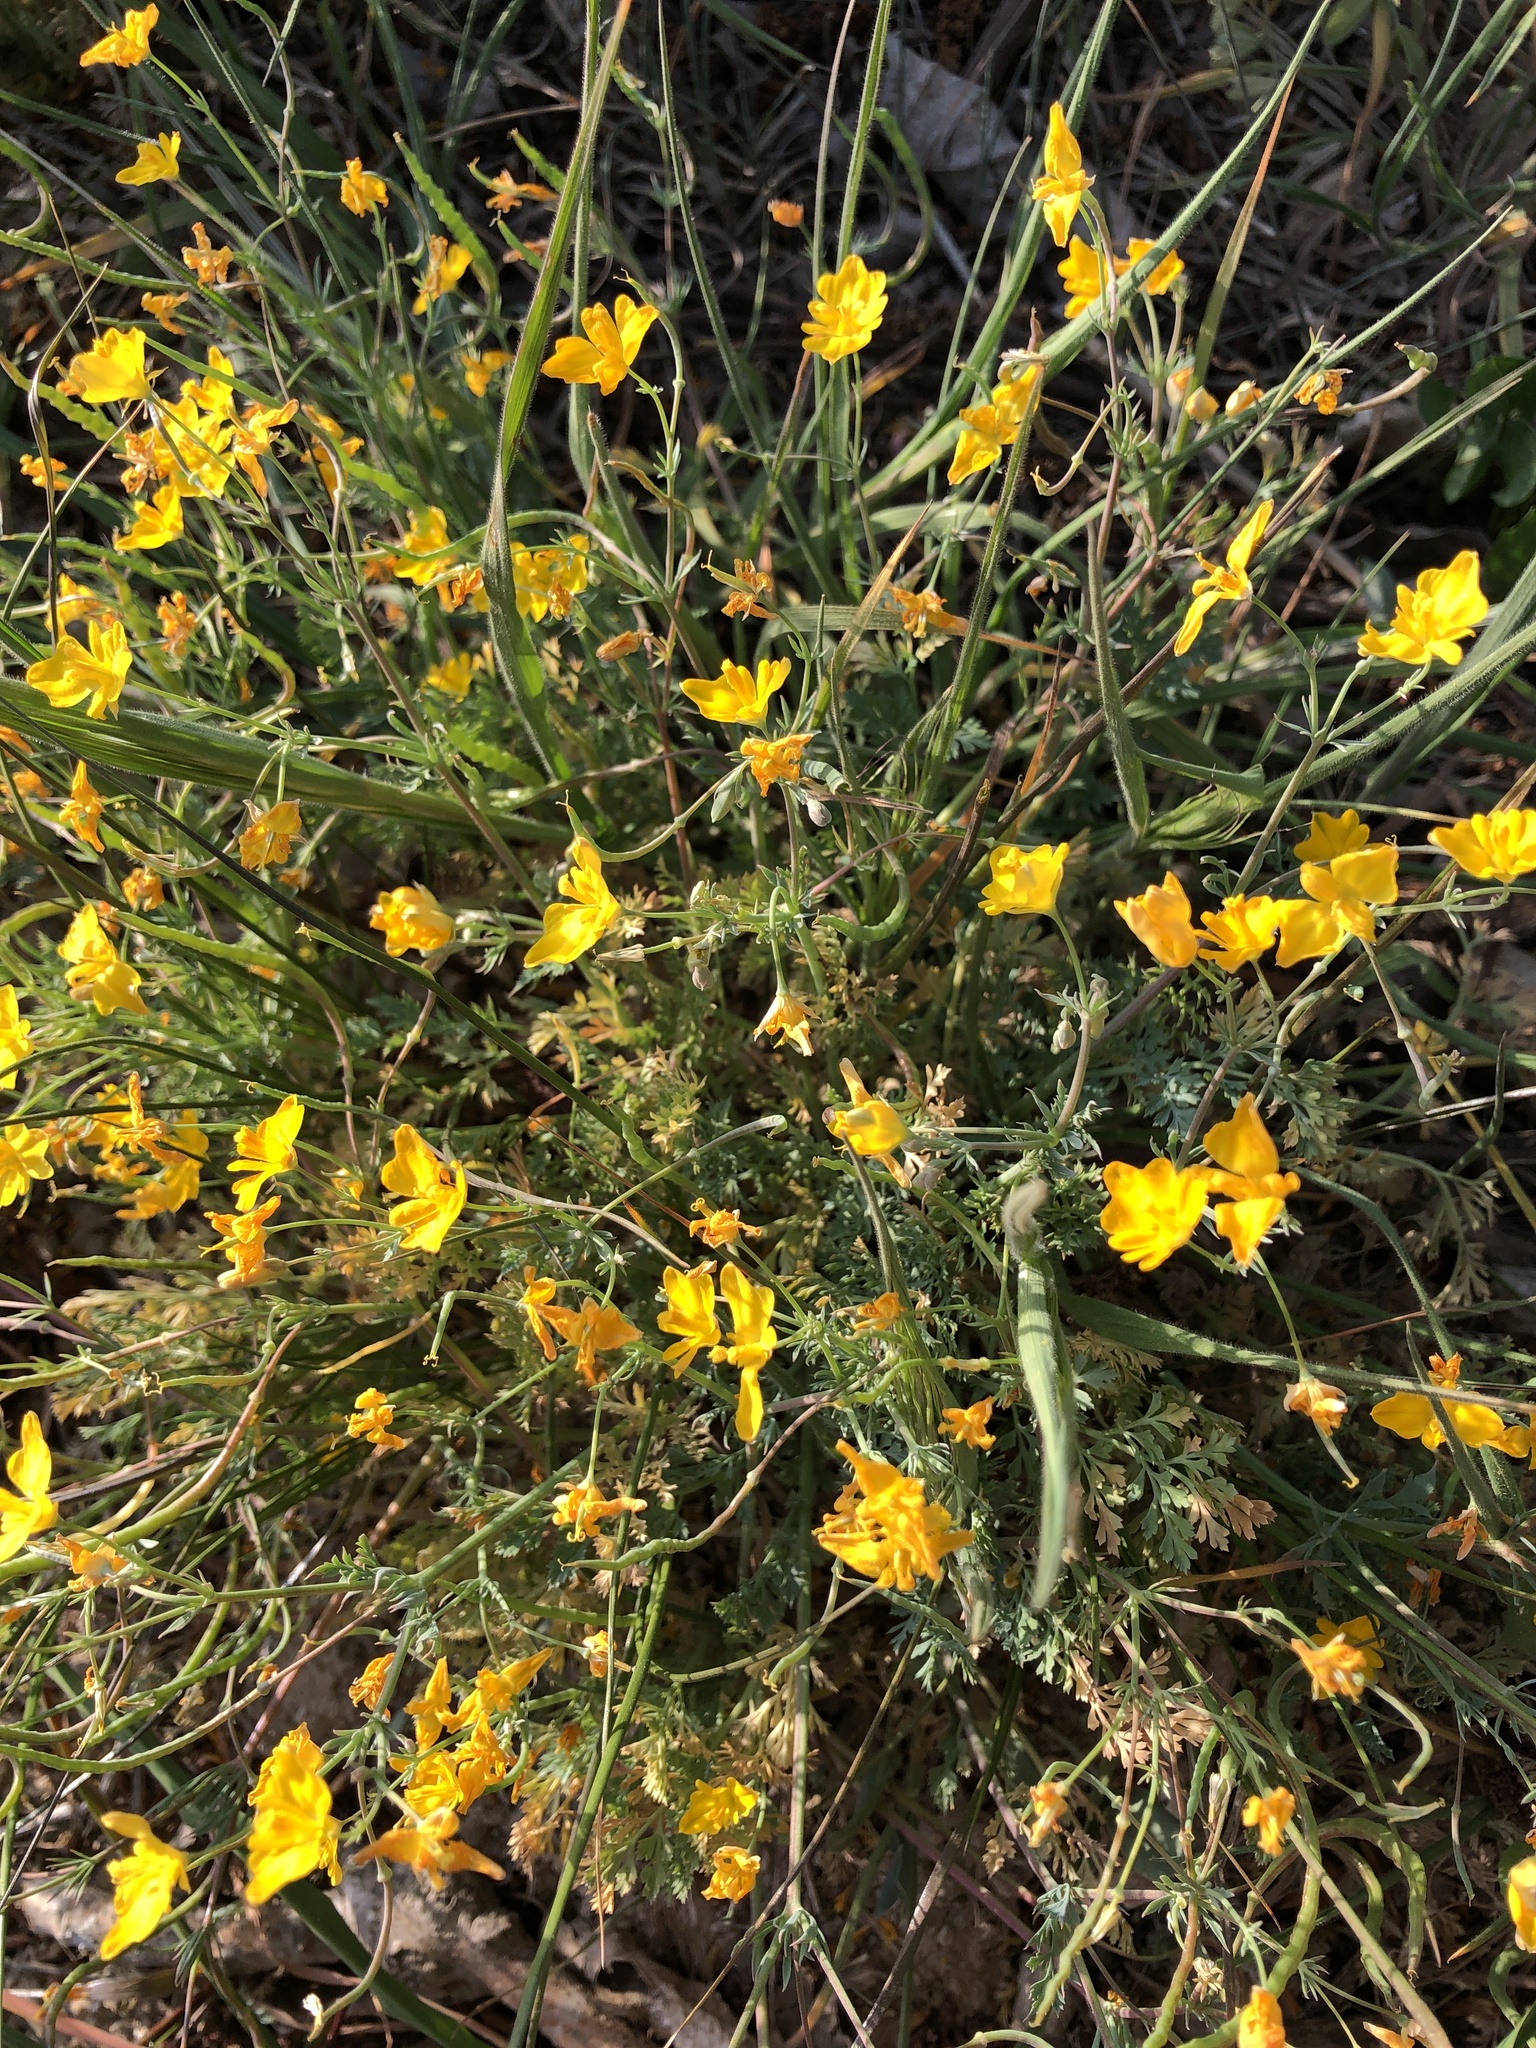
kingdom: Plantae
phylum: Tracheophyta
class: Magnoliopsida
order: Ranunculales
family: Papaveraceae
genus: Hypecoum
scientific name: Hypecoum imberbe
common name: Sicklefruit hypecoum
